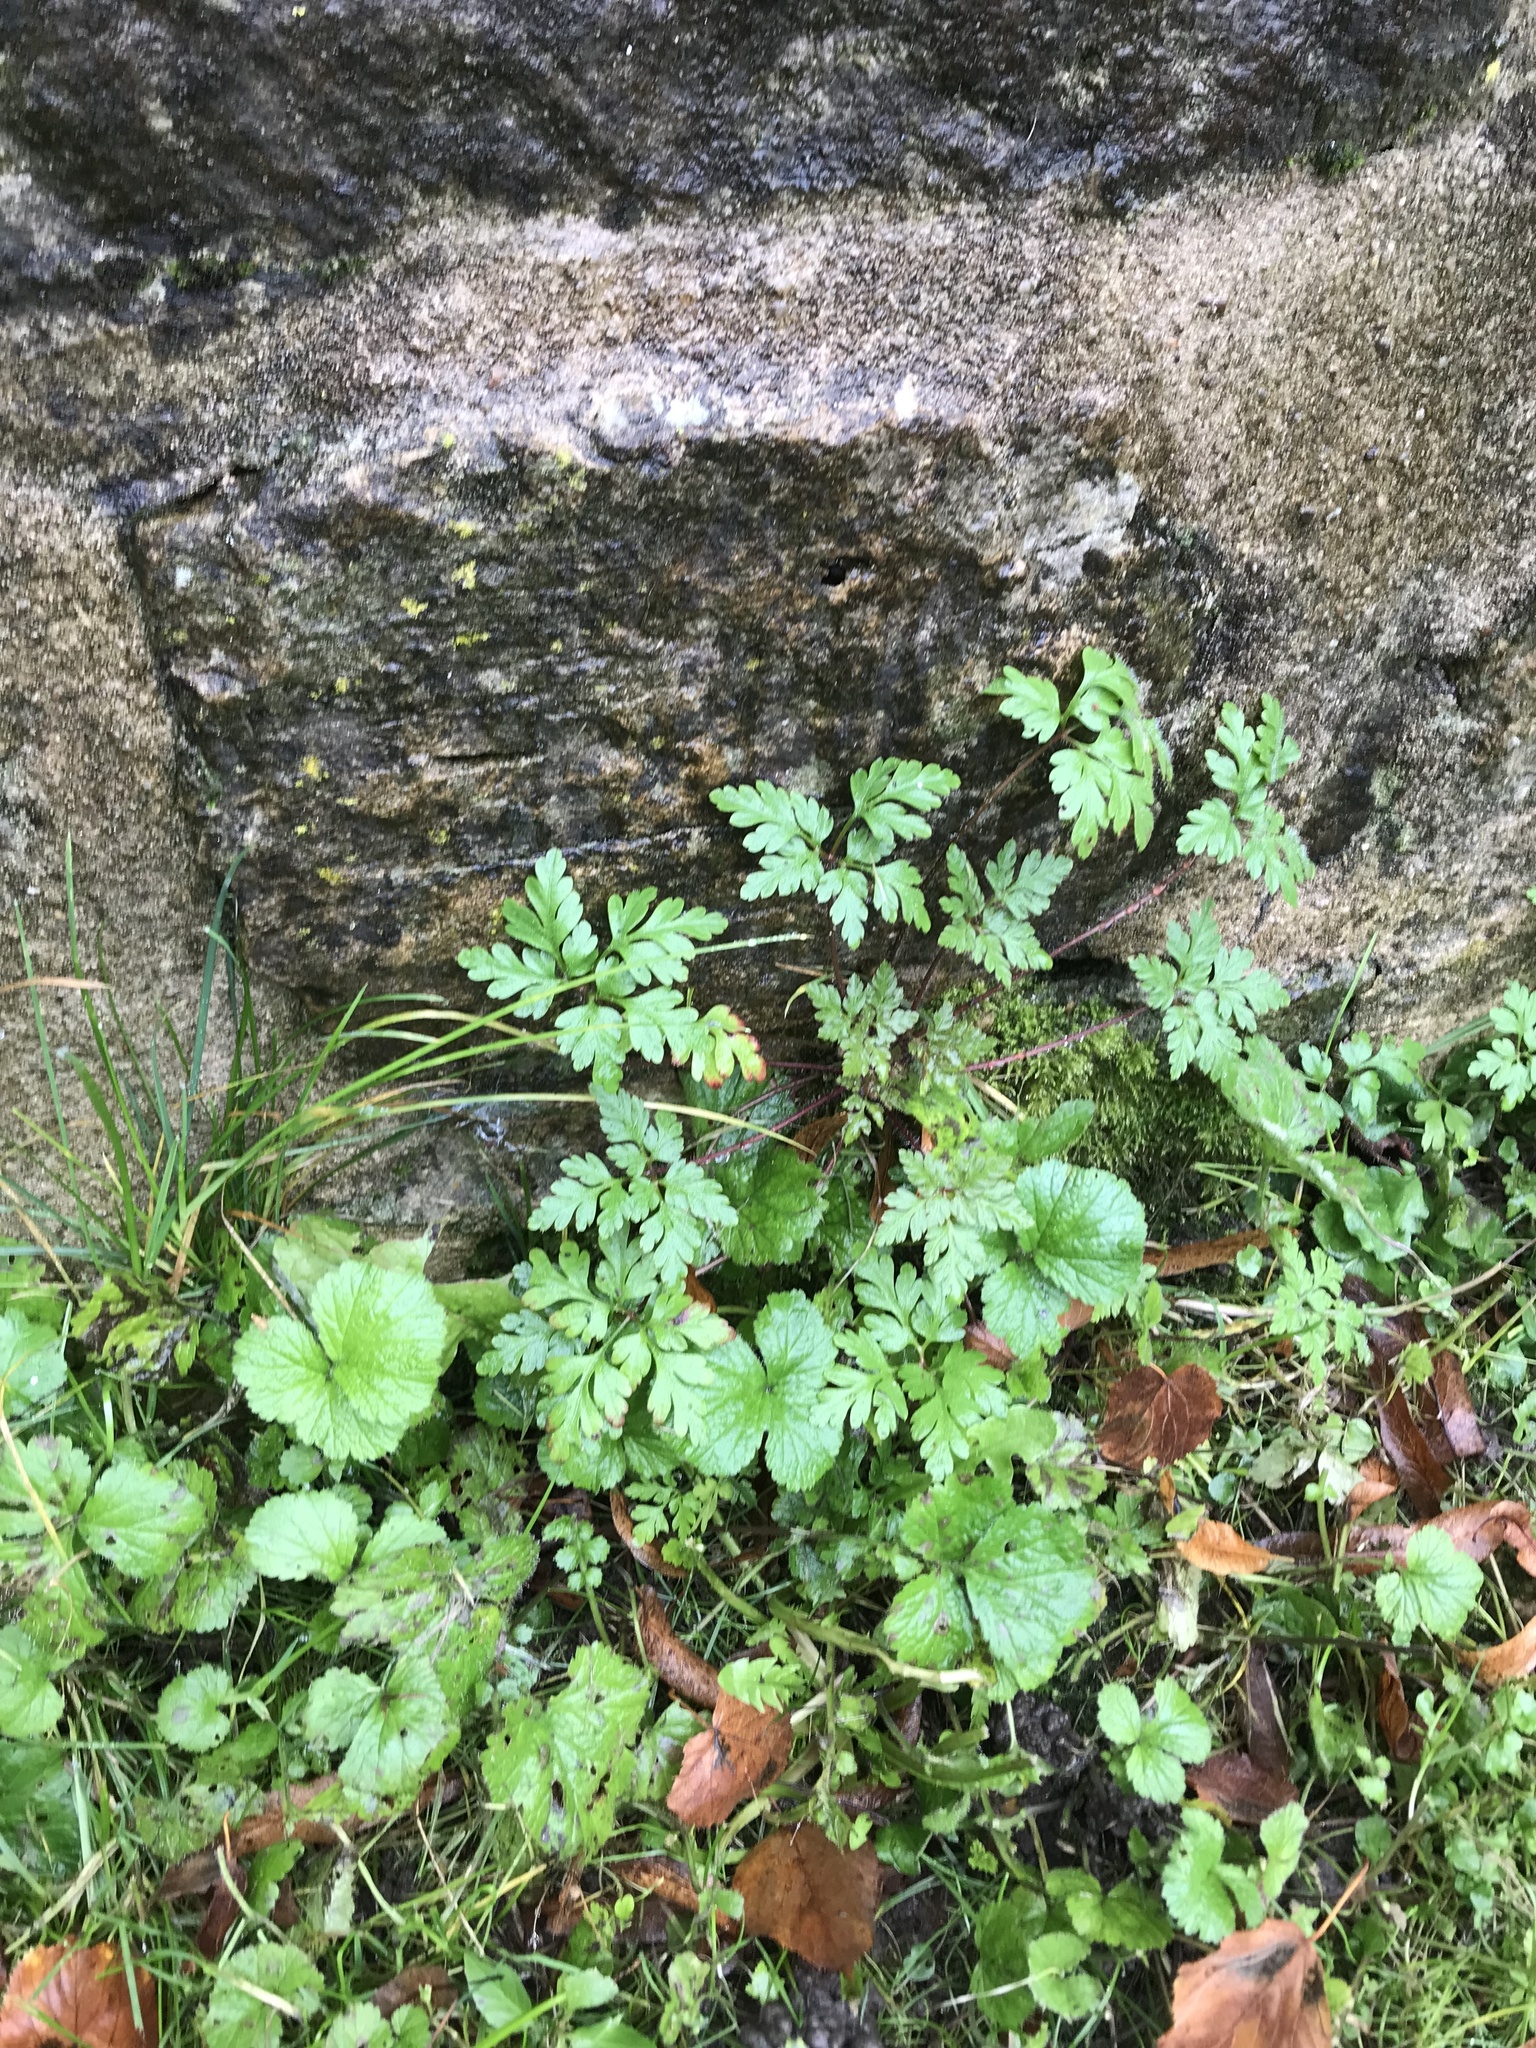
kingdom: Plantae
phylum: Tracheophyta
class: Magnoliopsida
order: Geraniales
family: Geraniaceae
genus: Geranium
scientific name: Geranium robertianum
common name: Herb-robert
